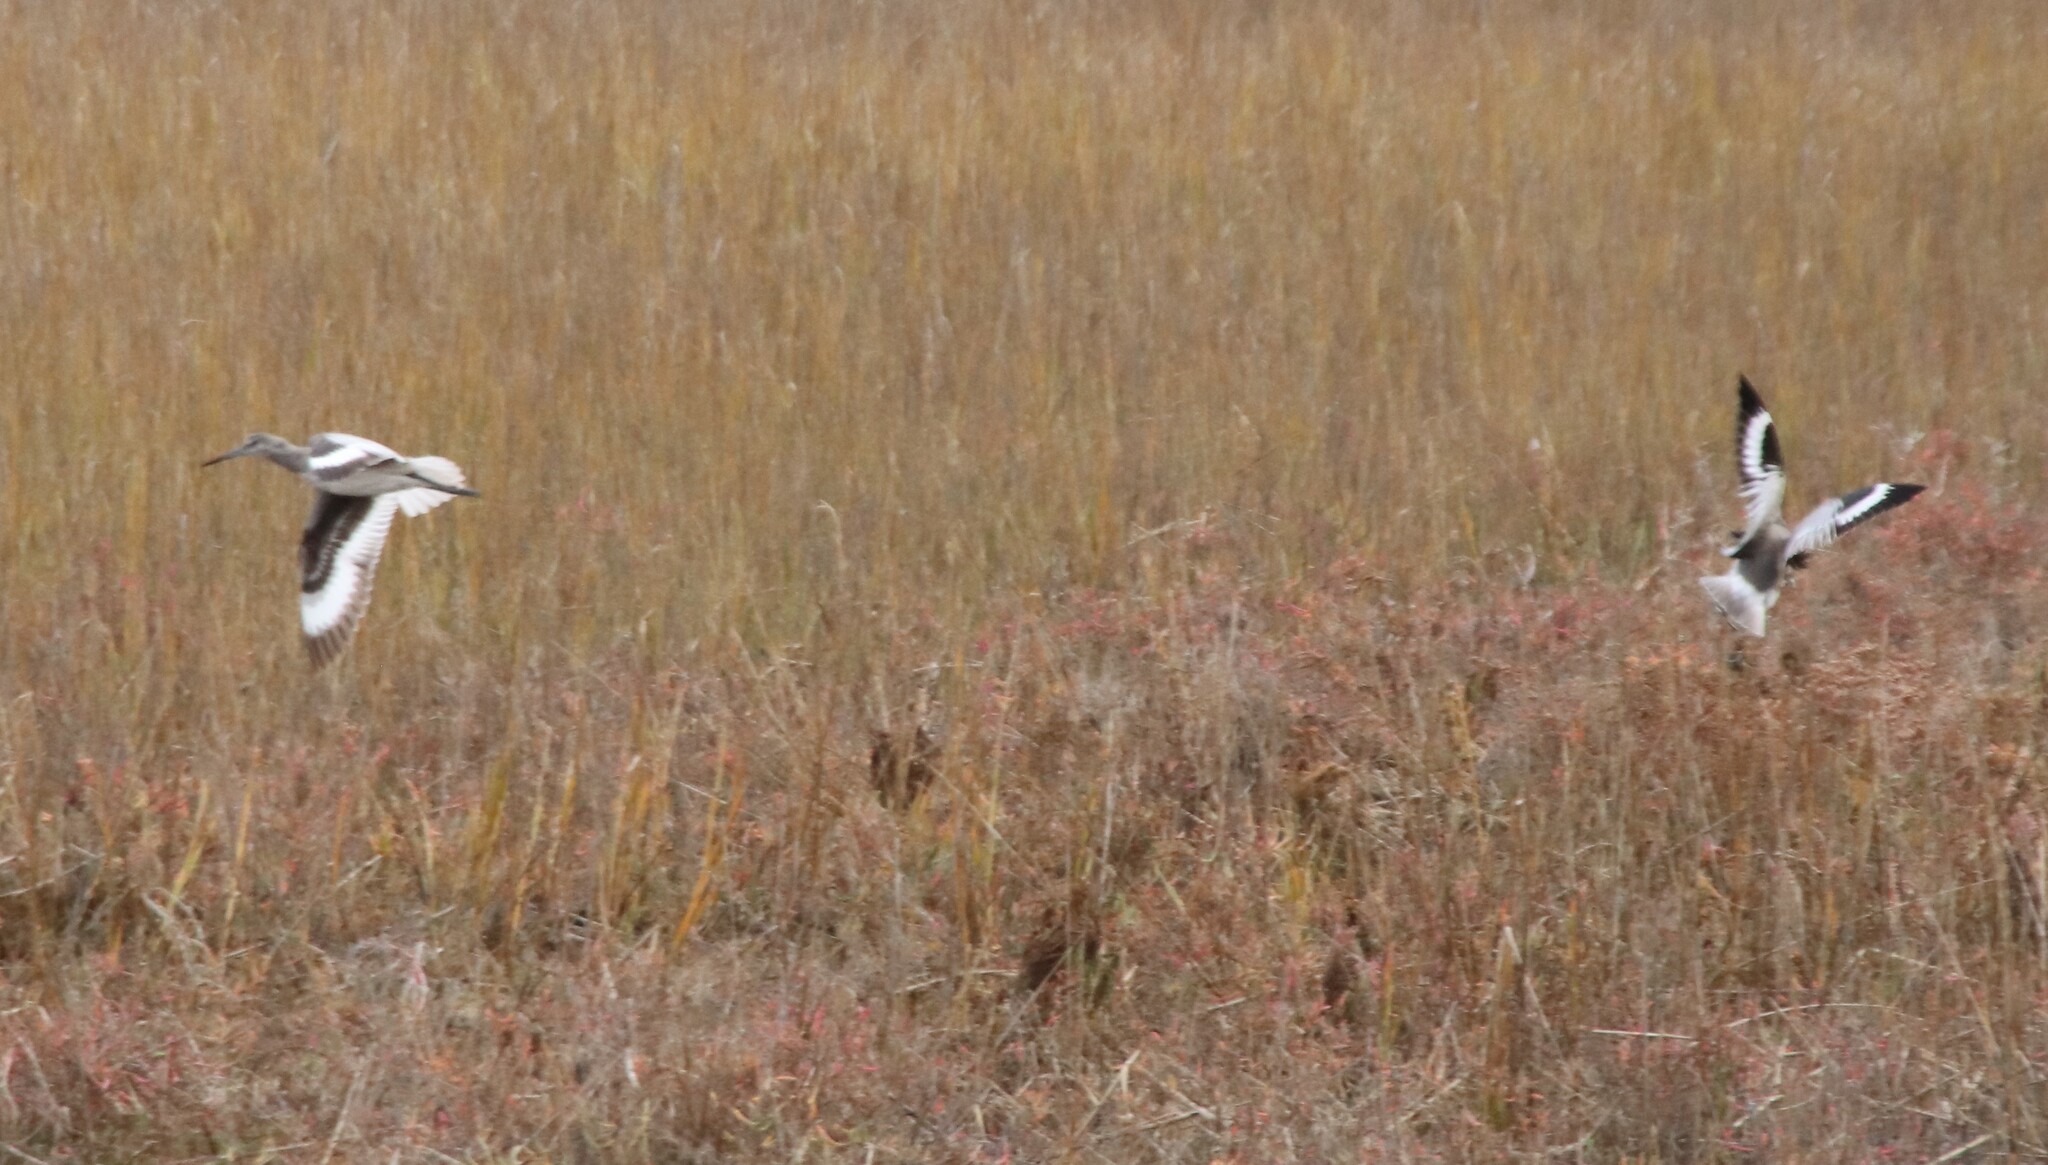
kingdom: Animalia
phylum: Chordata
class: Aves
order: Charadriiformes
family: Scolopacidae
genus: Tringa
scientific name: Tringa semipalmata
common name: Willet
